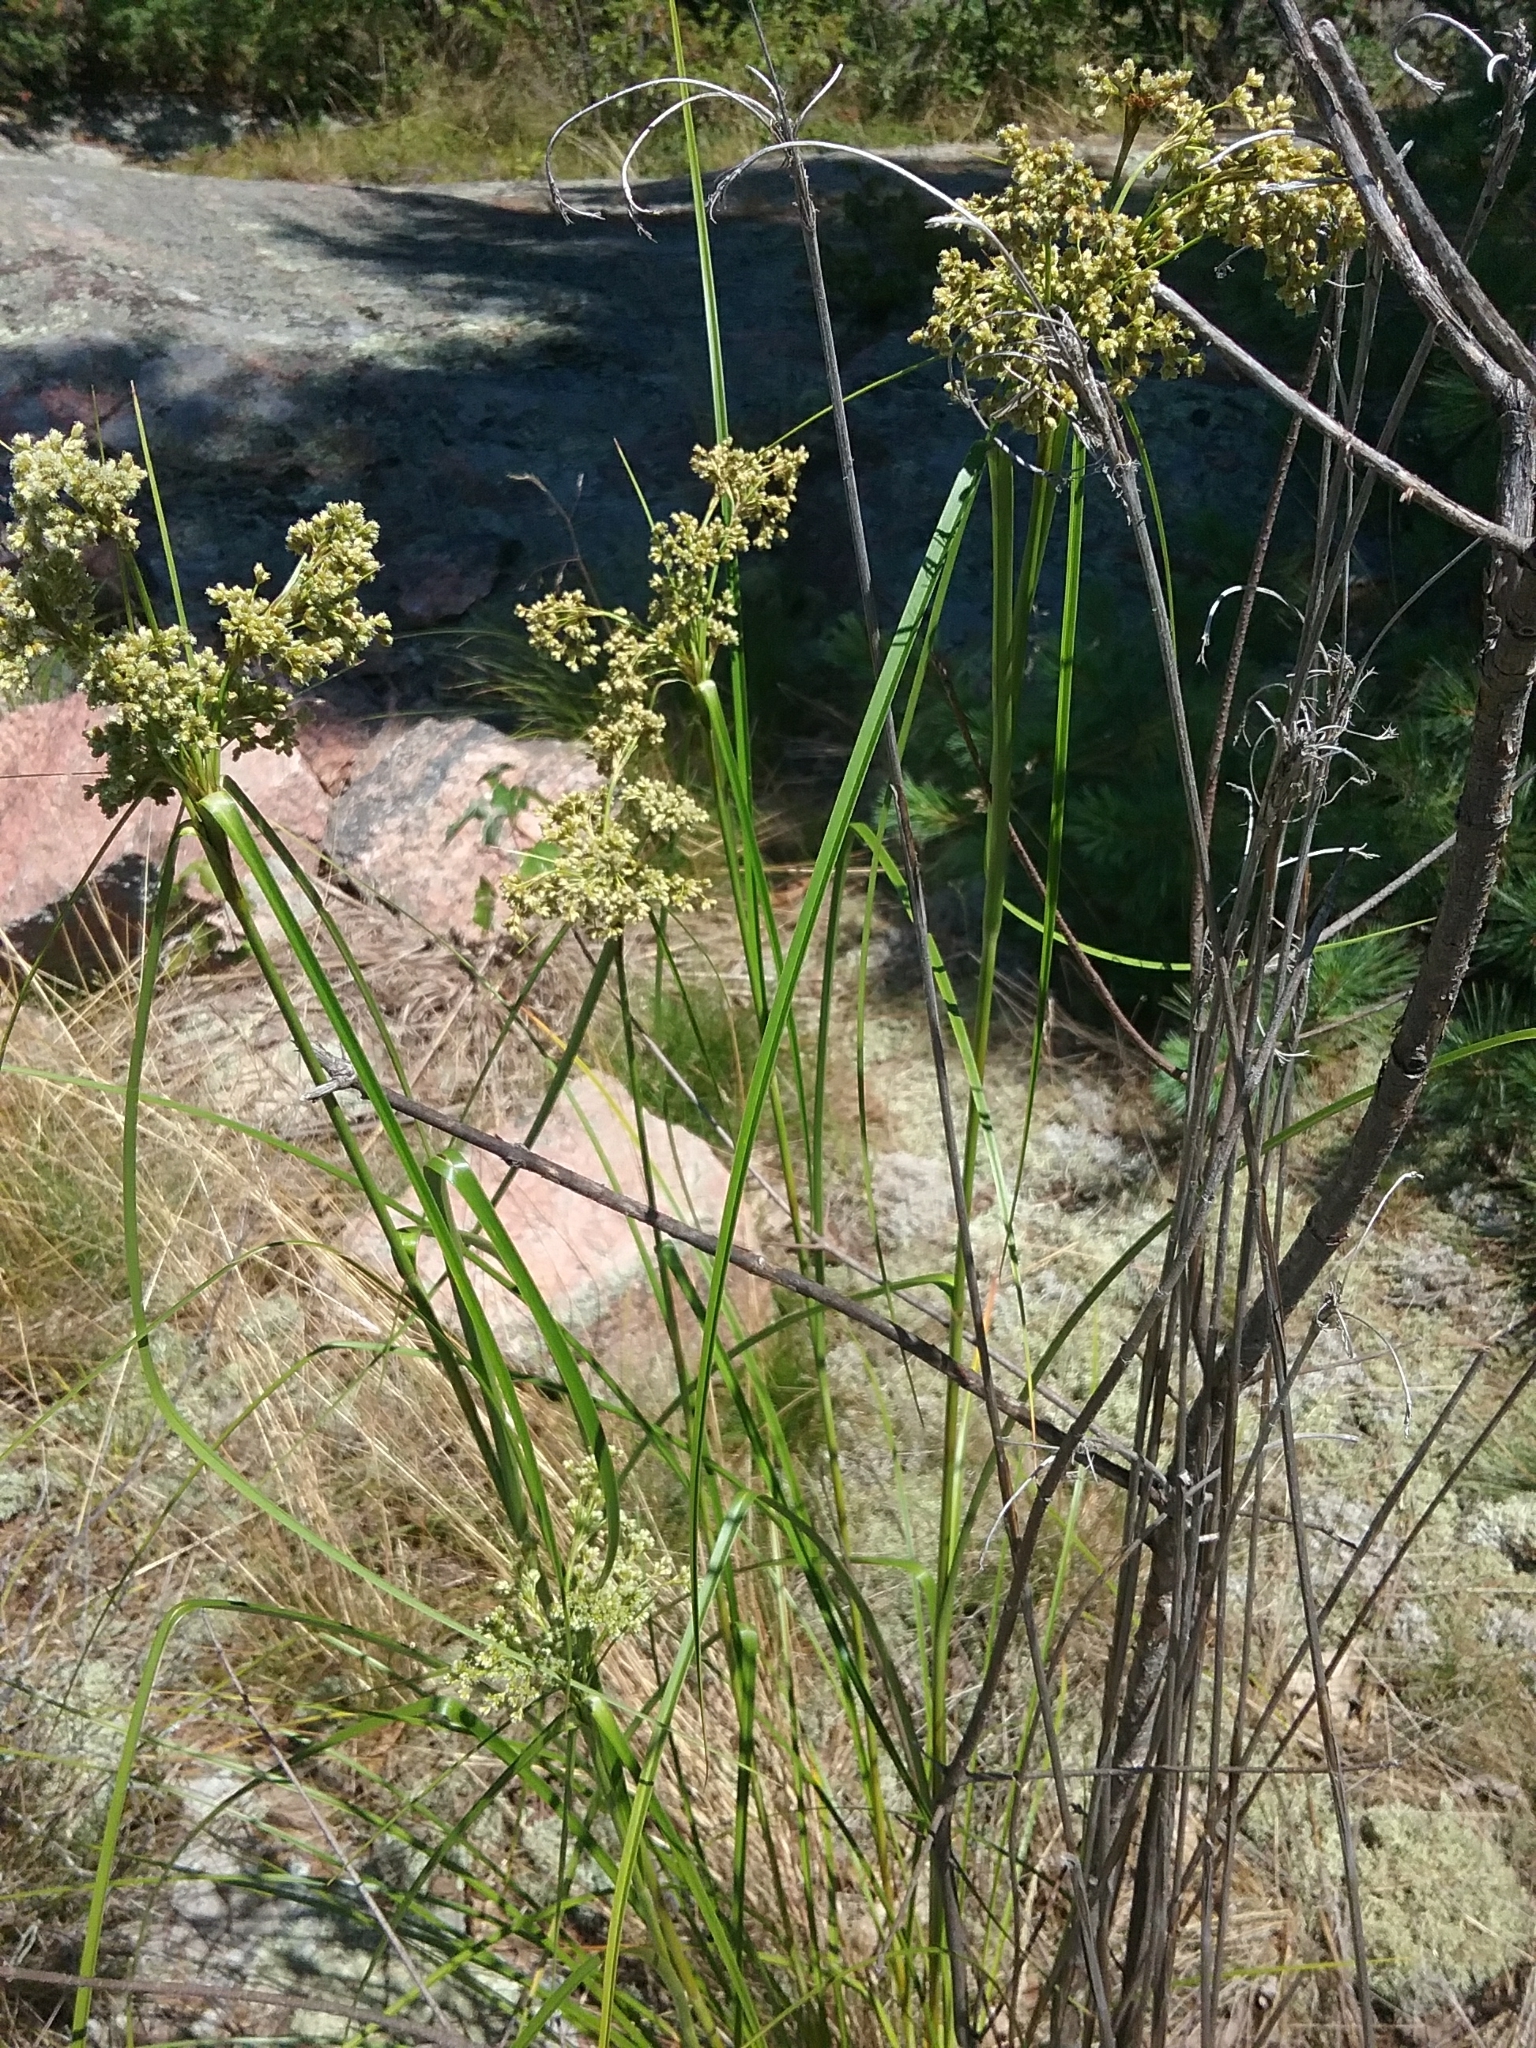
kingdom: Plantae
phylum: Tracheophyta
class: Liliopsida
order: Poales
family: Cyperaceae
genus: Scirpus
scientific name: Scirpus microcarpus
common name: Panicled bulrush
